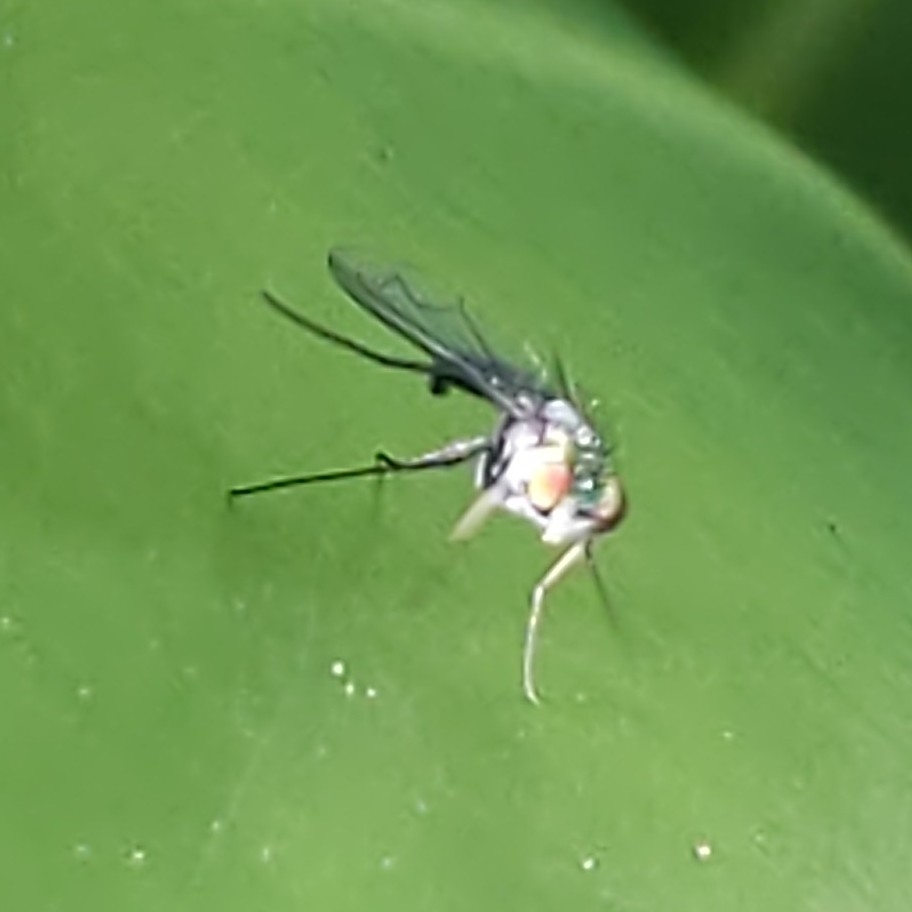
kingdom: Animalia
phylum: Arthropoda
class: Insecta
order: Diptera
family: Dolichopodidae
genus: Condylostylus
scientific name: Condylostylus longicornis
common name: Long-legged fly
